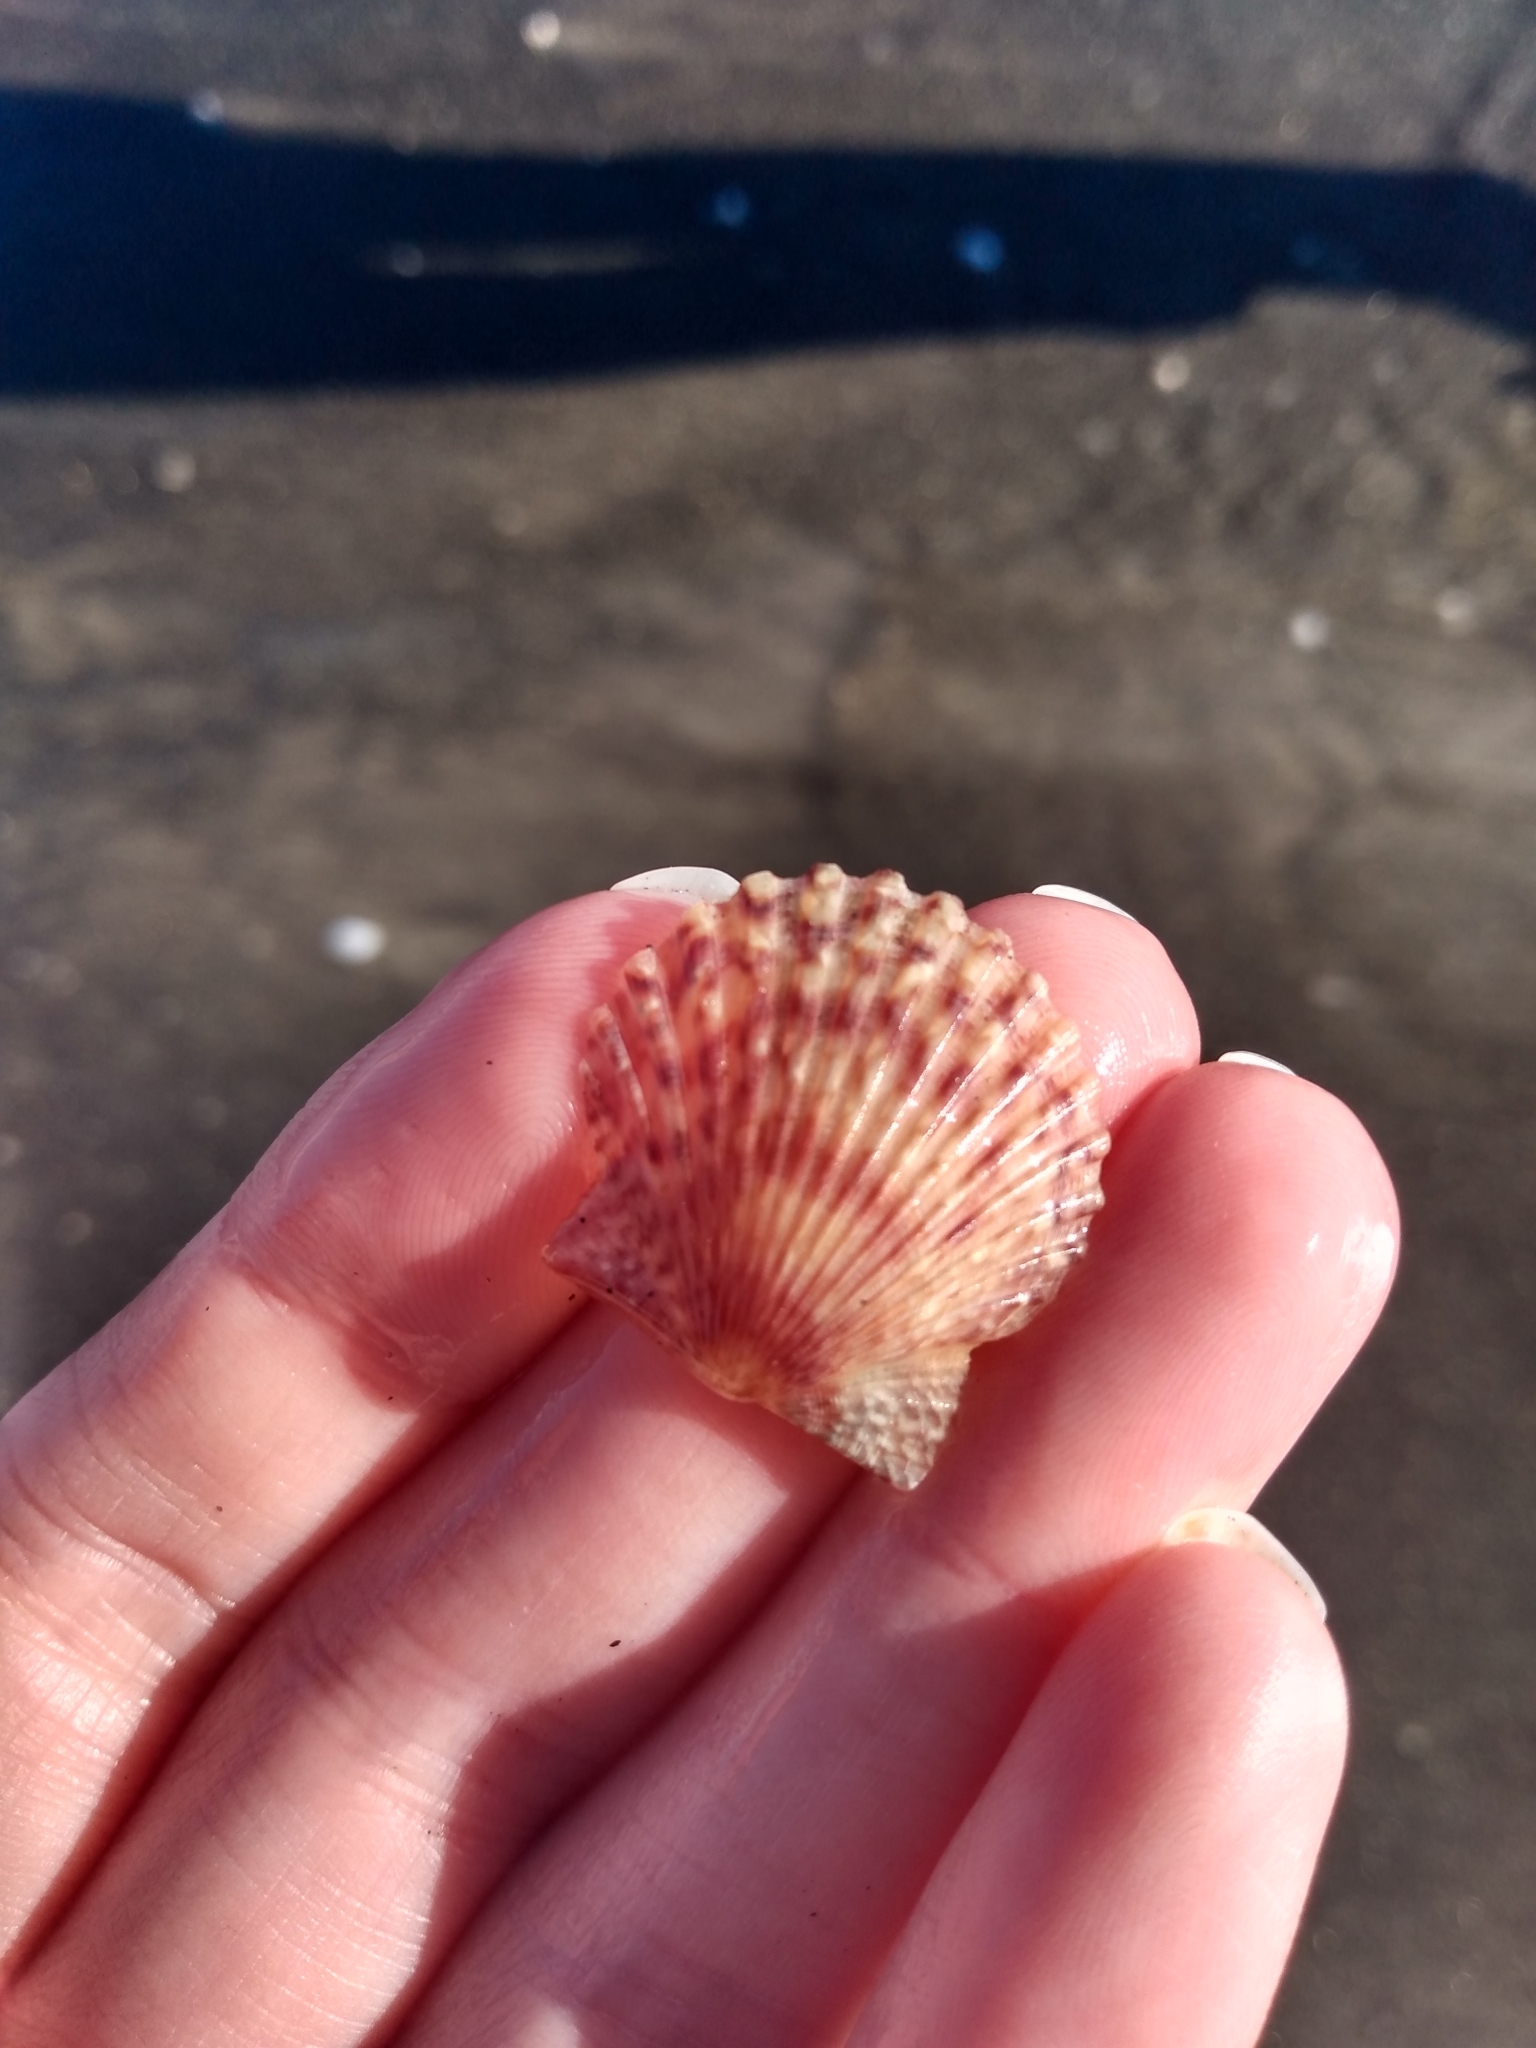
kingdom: Animalia
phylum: Mollusca
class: Bivalvia
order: Pectinida
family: Pectinidae
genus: Argopecten
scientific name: Argopecten ventricosus
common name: Catarina scallop
